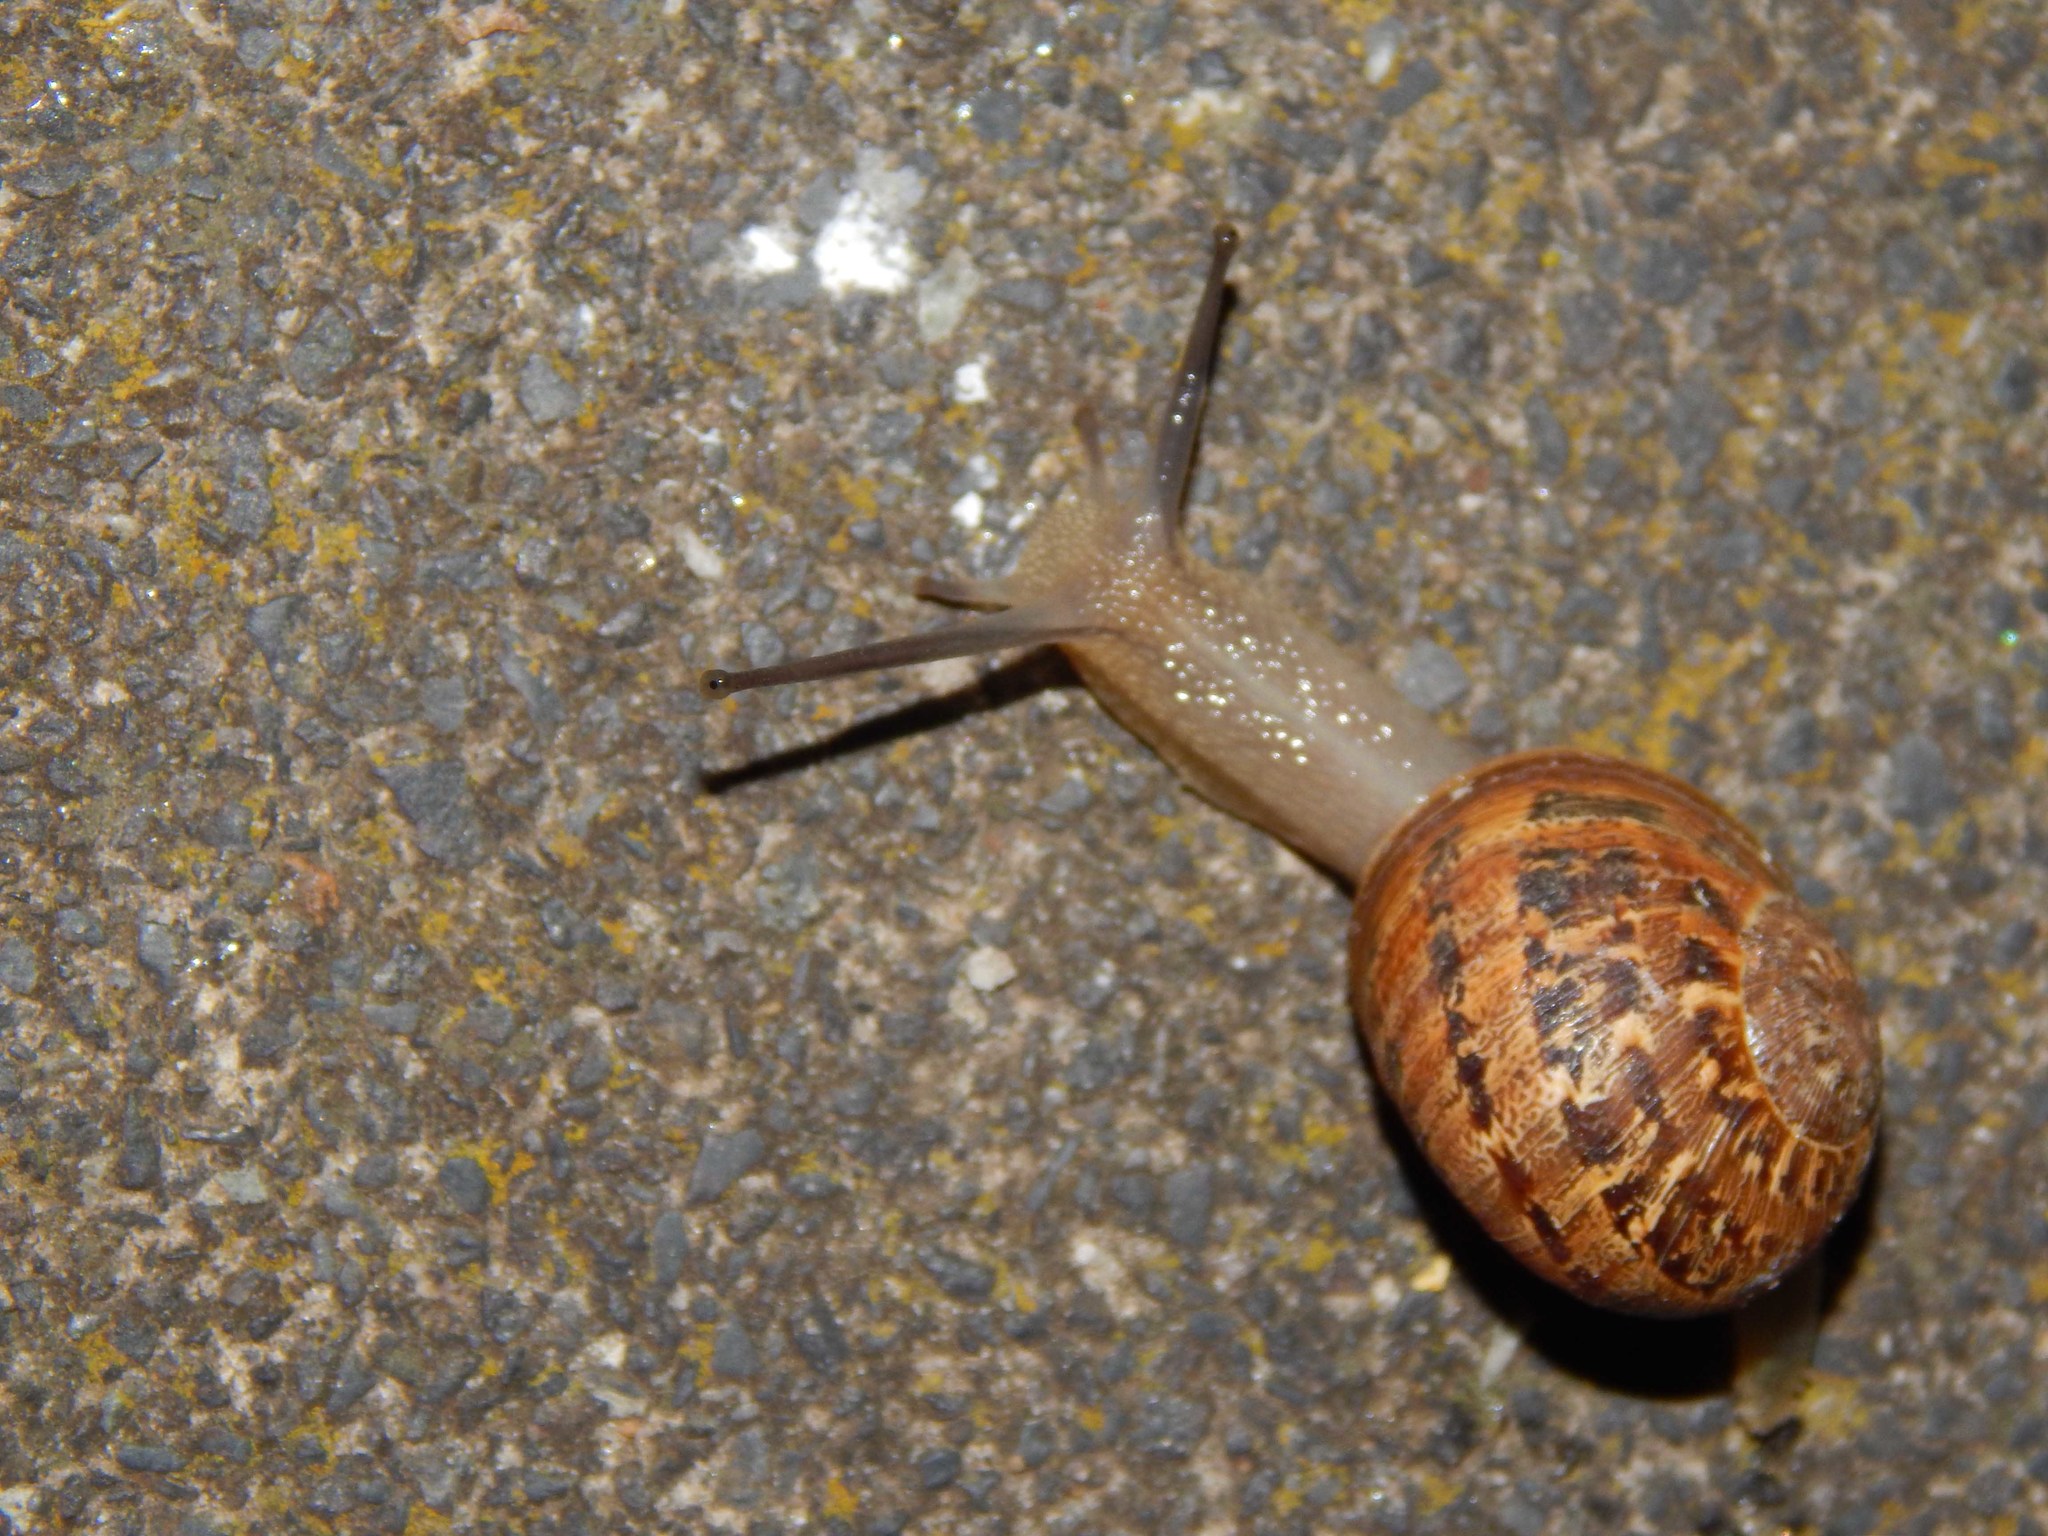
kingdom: Animalia
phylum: Mollusca
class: Gastropoda
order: Stylommatophora
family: Helicidae
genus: Cornu
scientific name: Cornu aspersum
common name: Brown garden snail
